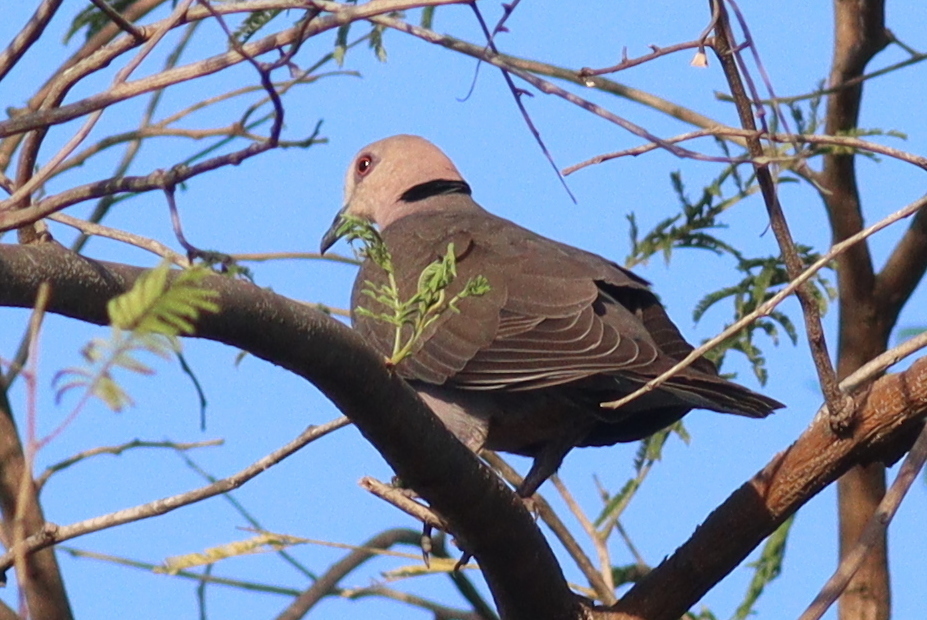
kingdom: Animalia
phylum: Chordata
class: Aves
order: Columbiformes
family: Columbidae
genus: Streptopelia
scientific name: Streptopelia semitorquata
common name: Red-eyed dove
